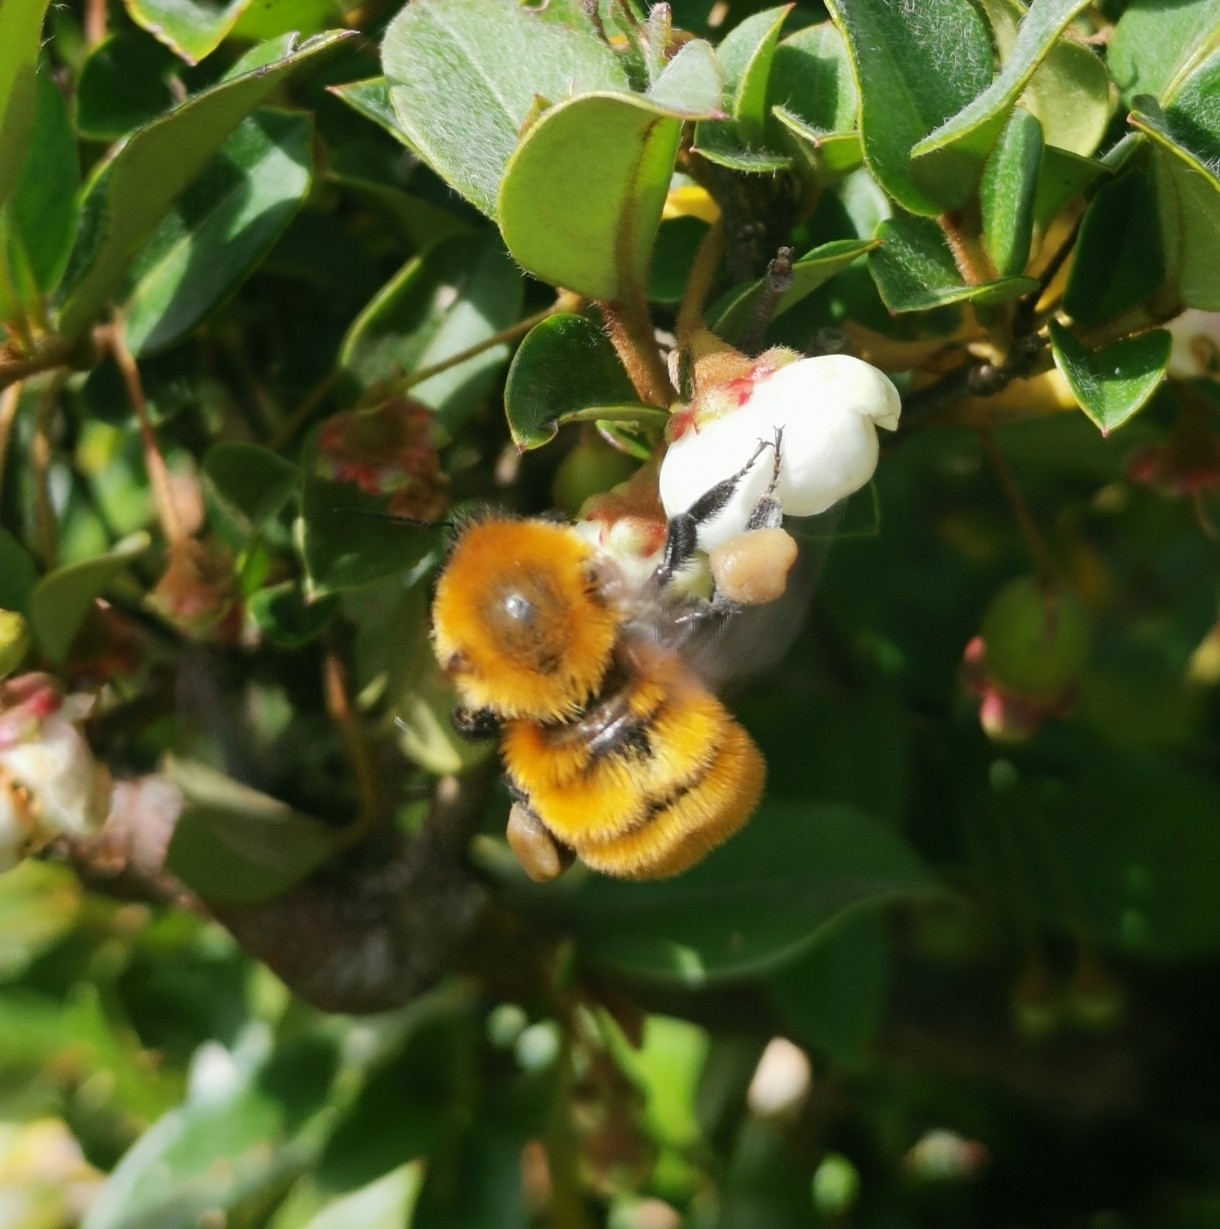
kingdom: Animalia
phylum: Arthropoda
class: Insecta
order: Hymenoptera
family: Apidae
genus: Bombus
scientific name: Bombus dahlbomii
